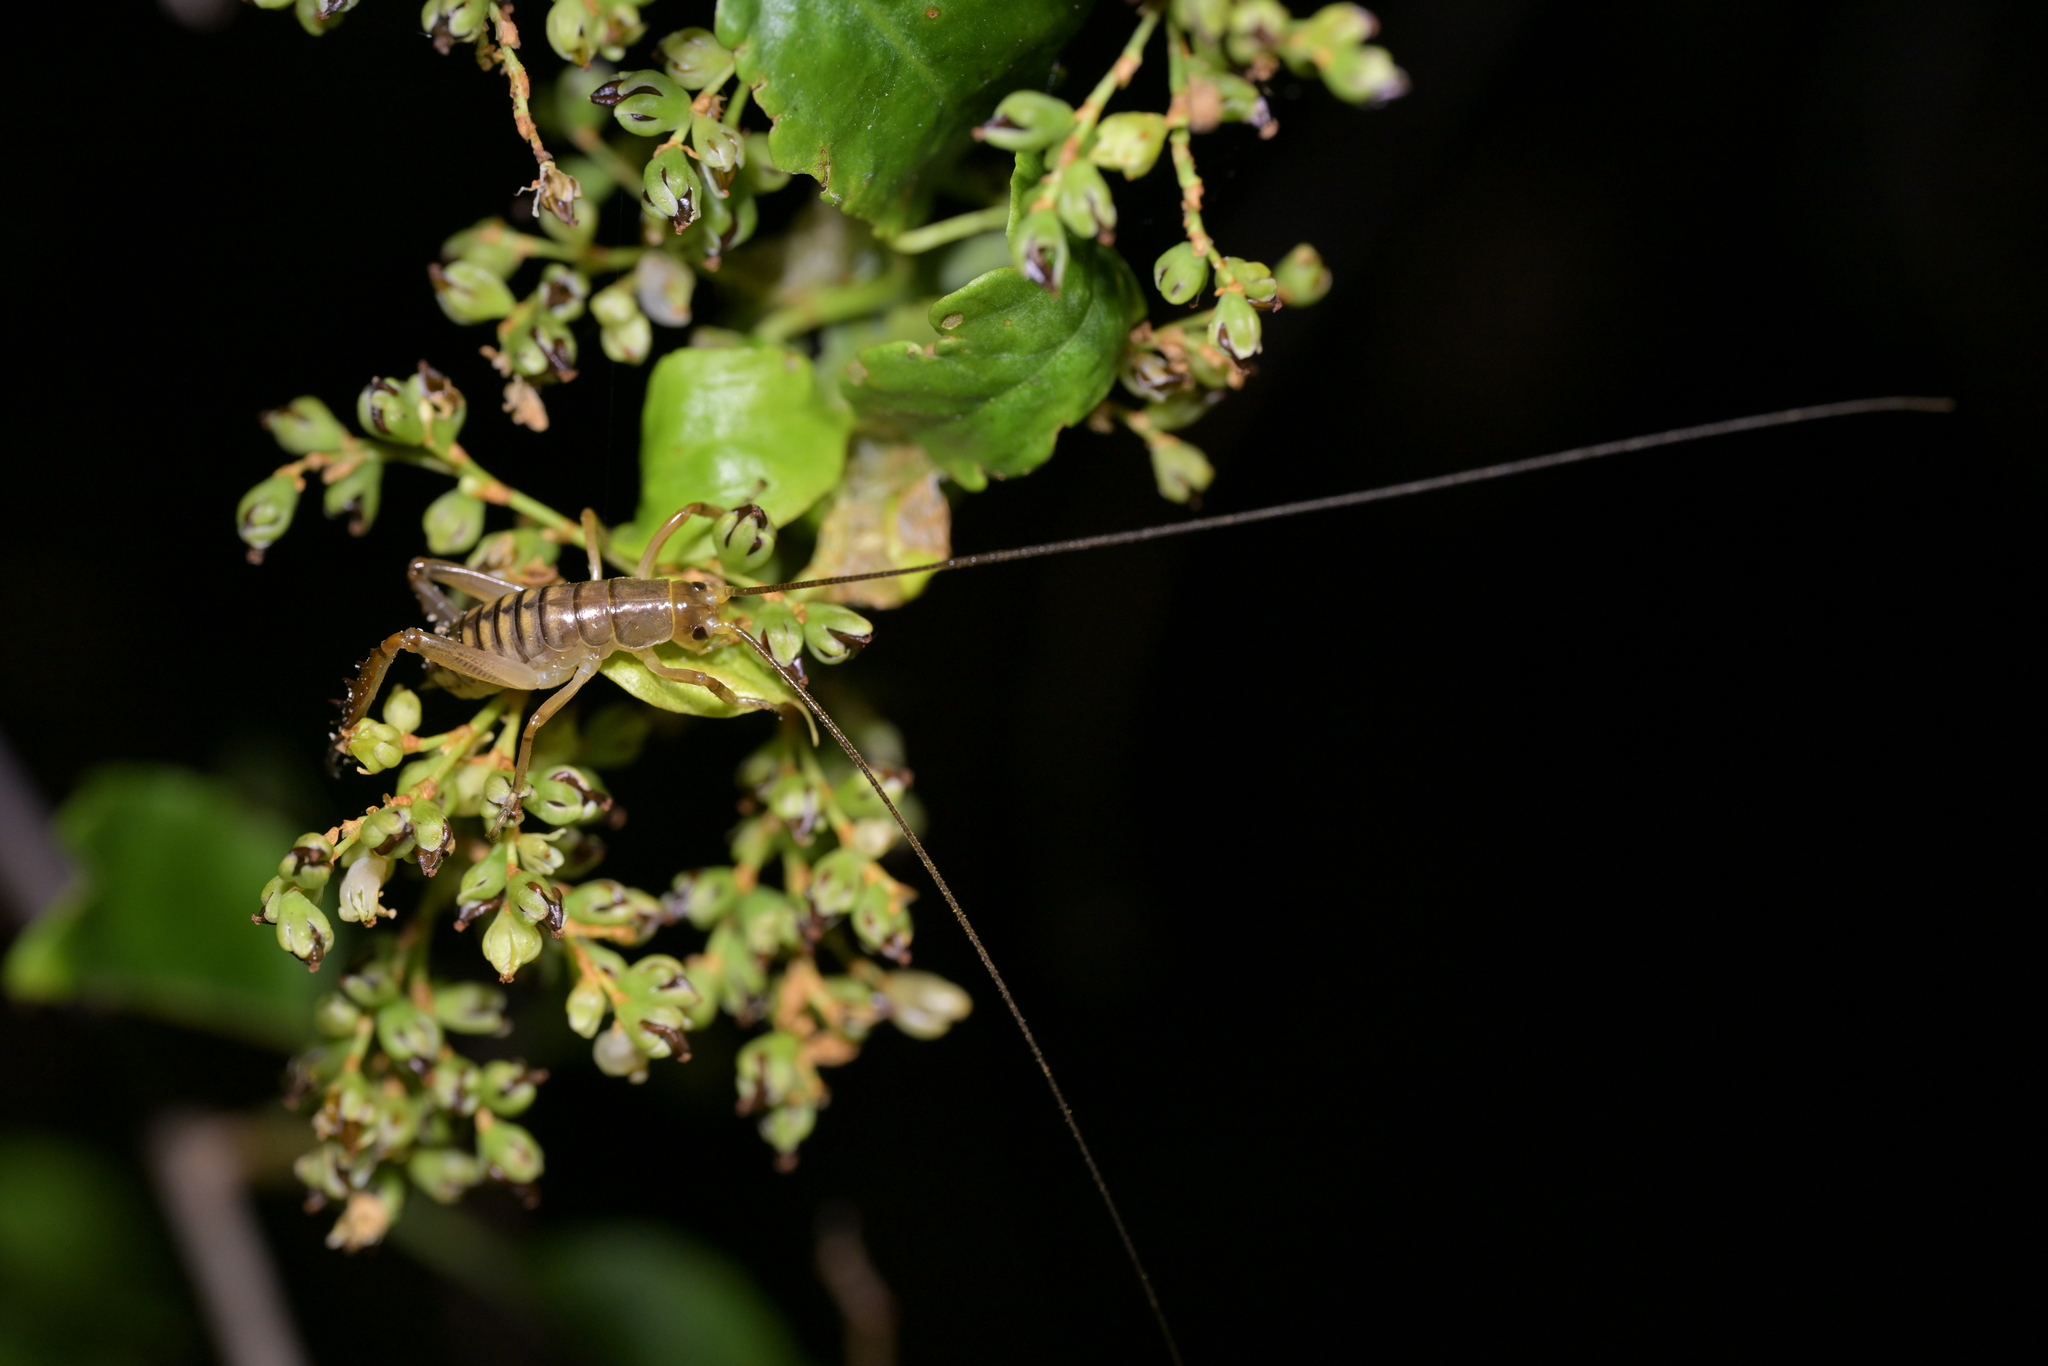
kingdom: Animalia
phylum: Arthropoda
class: Insecta
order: Orthoptera
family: Anostostomatidae
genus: Hemideina
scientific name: Hemideina crassidens
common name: Wellington tree weta
